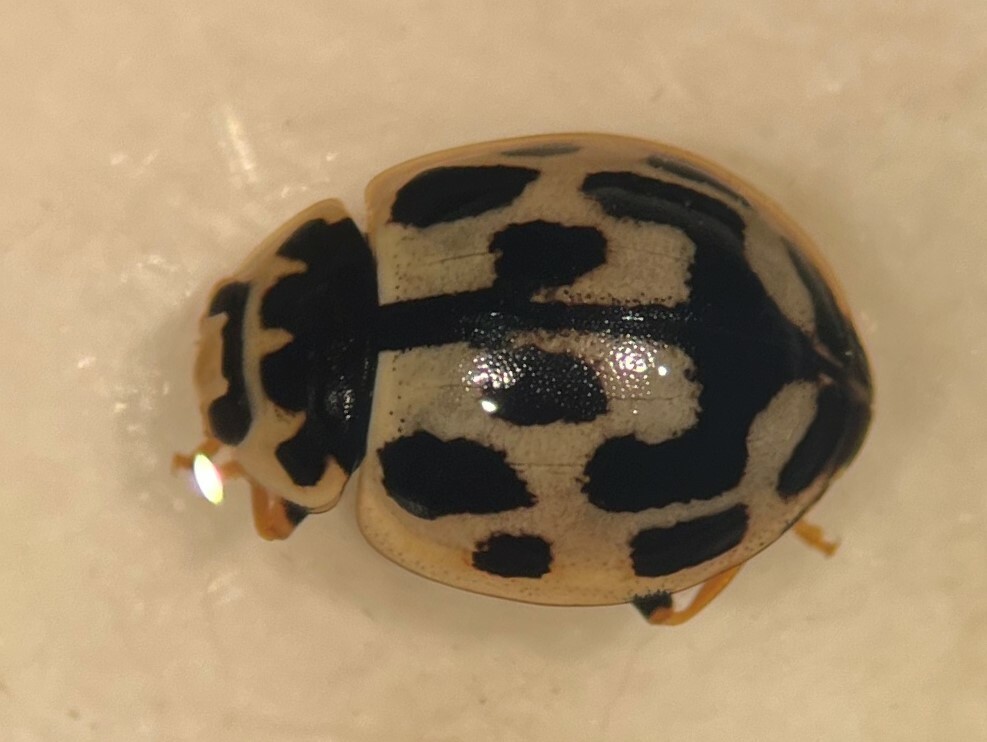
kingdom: Animalia
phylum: Arthropoda
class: Insecta
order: Coleoptera
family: Coccinellidae
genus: Propylaea
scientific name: Propylaea quatuordecimpunctata
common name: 14-spotted ladybird beetle
